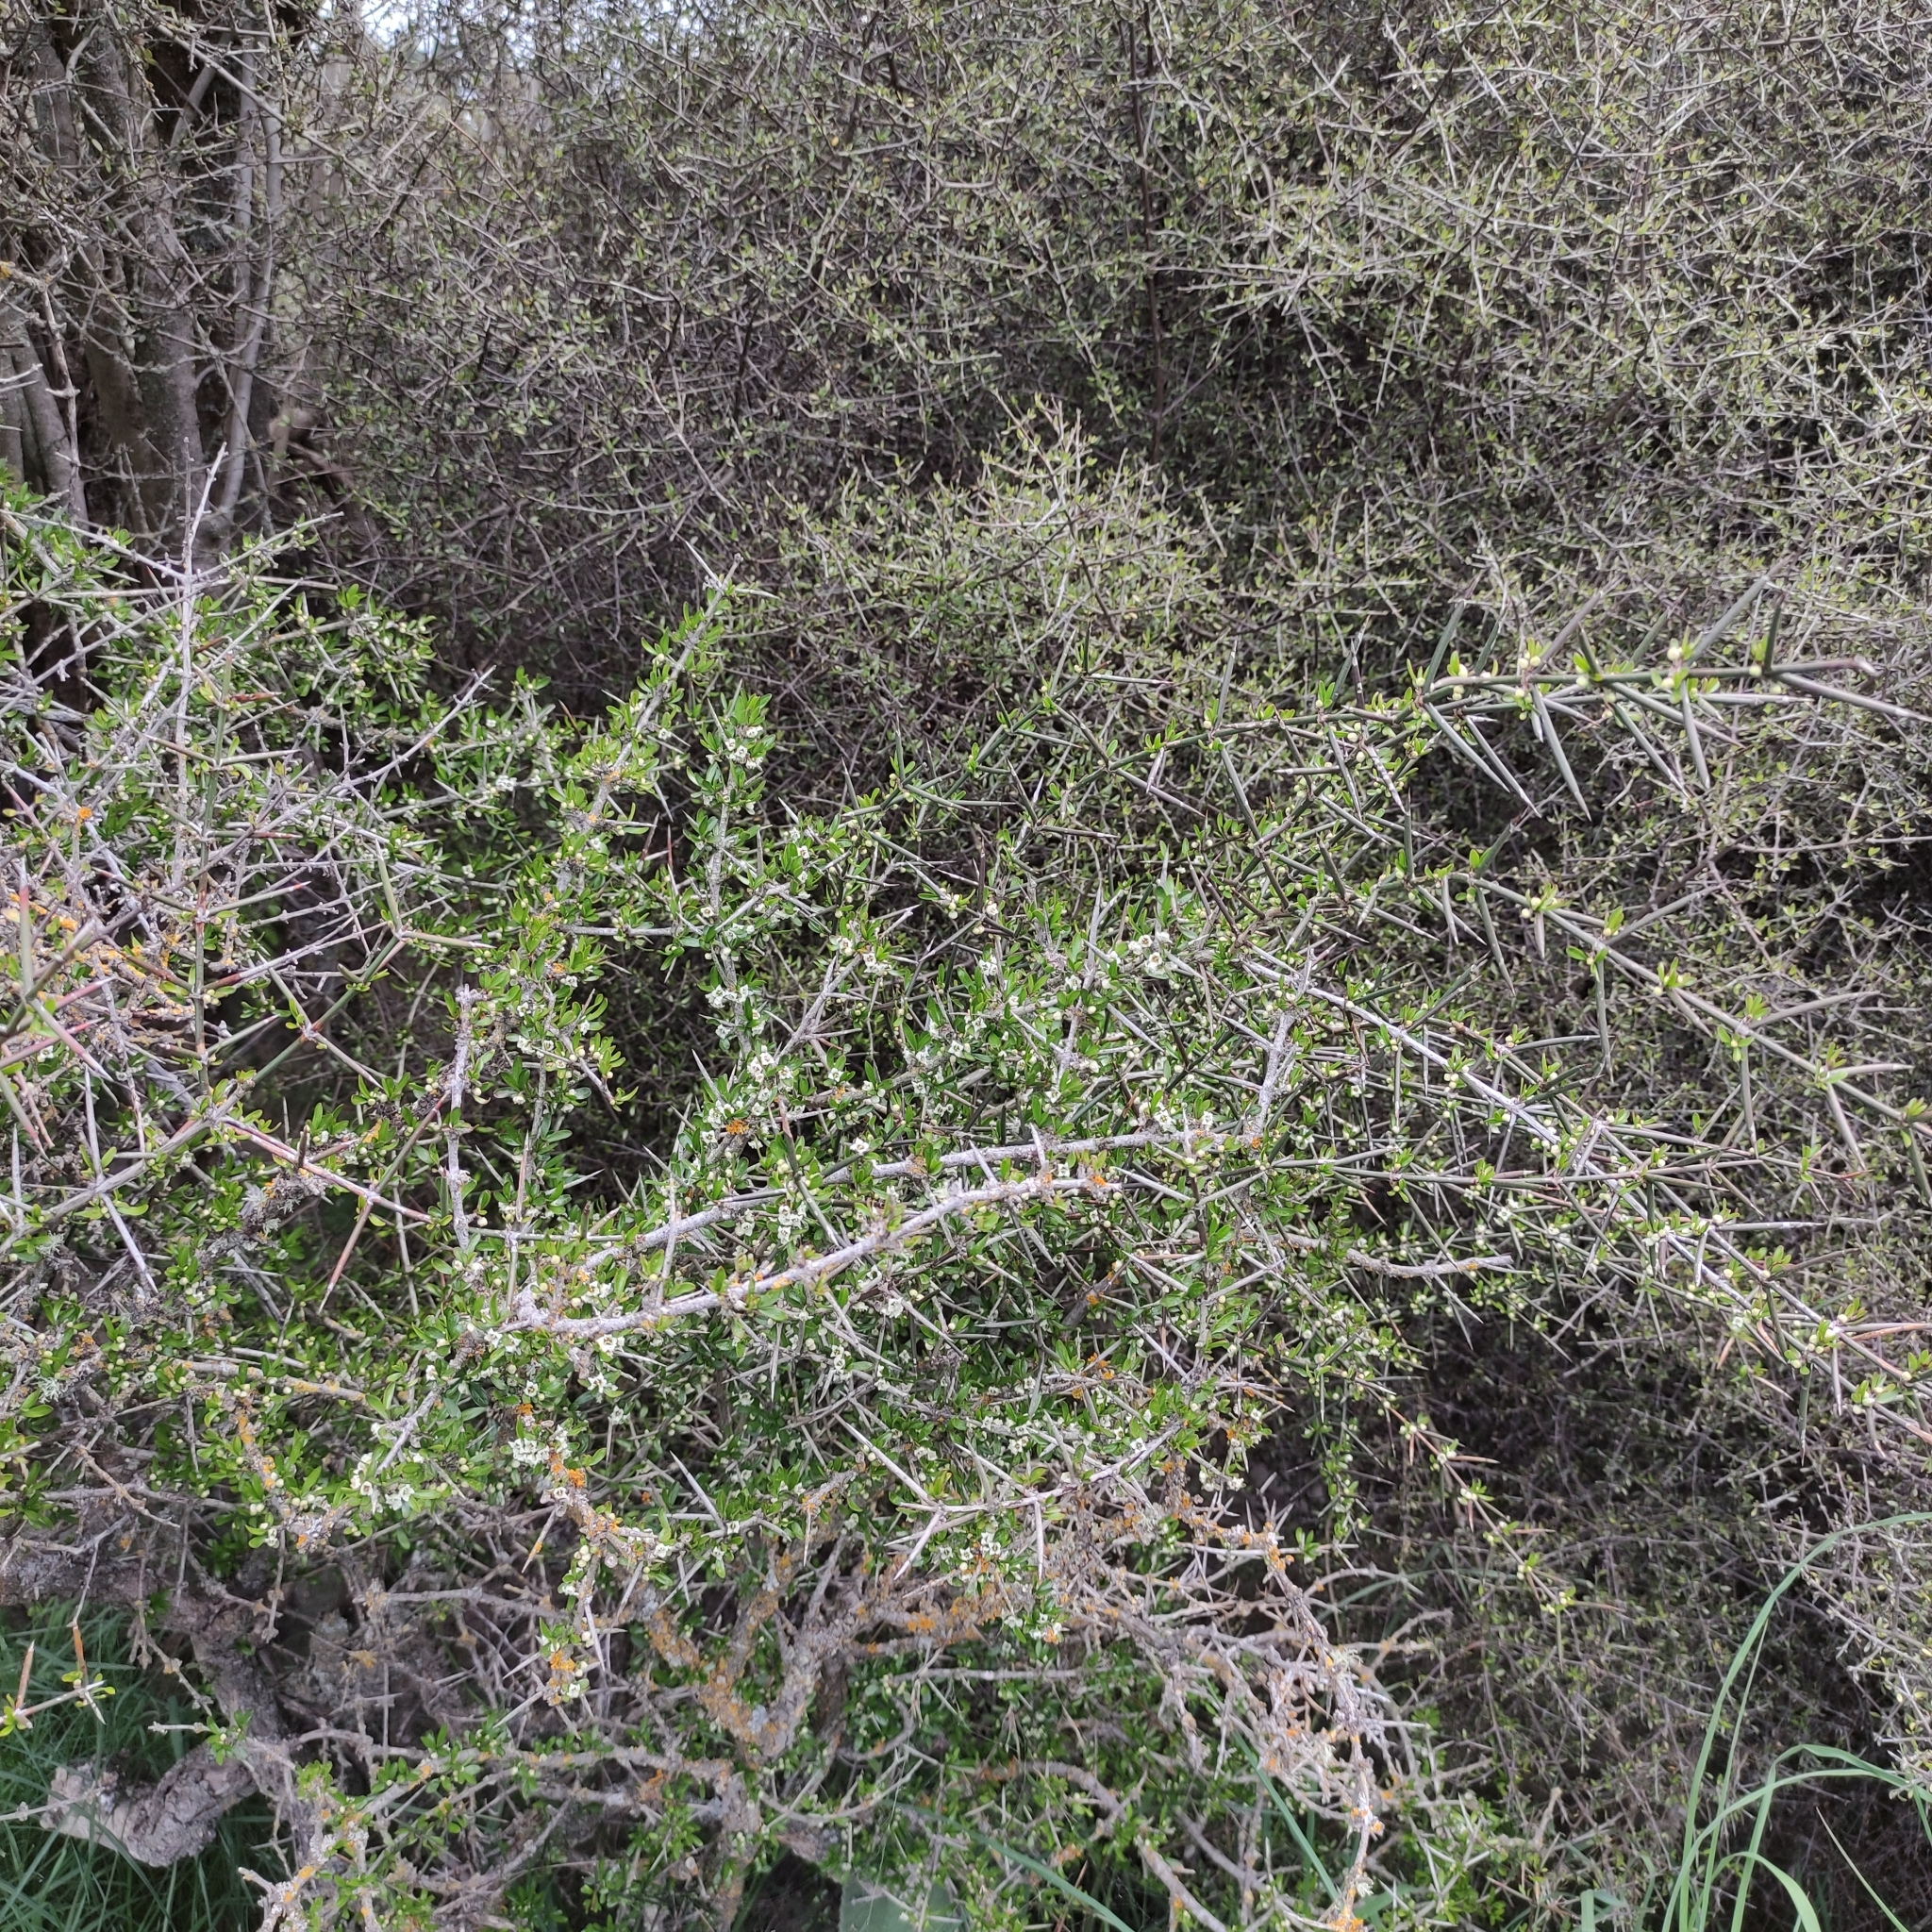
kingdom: Plantae
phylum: Tracheophyta
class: Magnoliopsida
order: Rosales
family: Rhamnaceae
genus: Discaria
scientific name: Discaria toumatou
